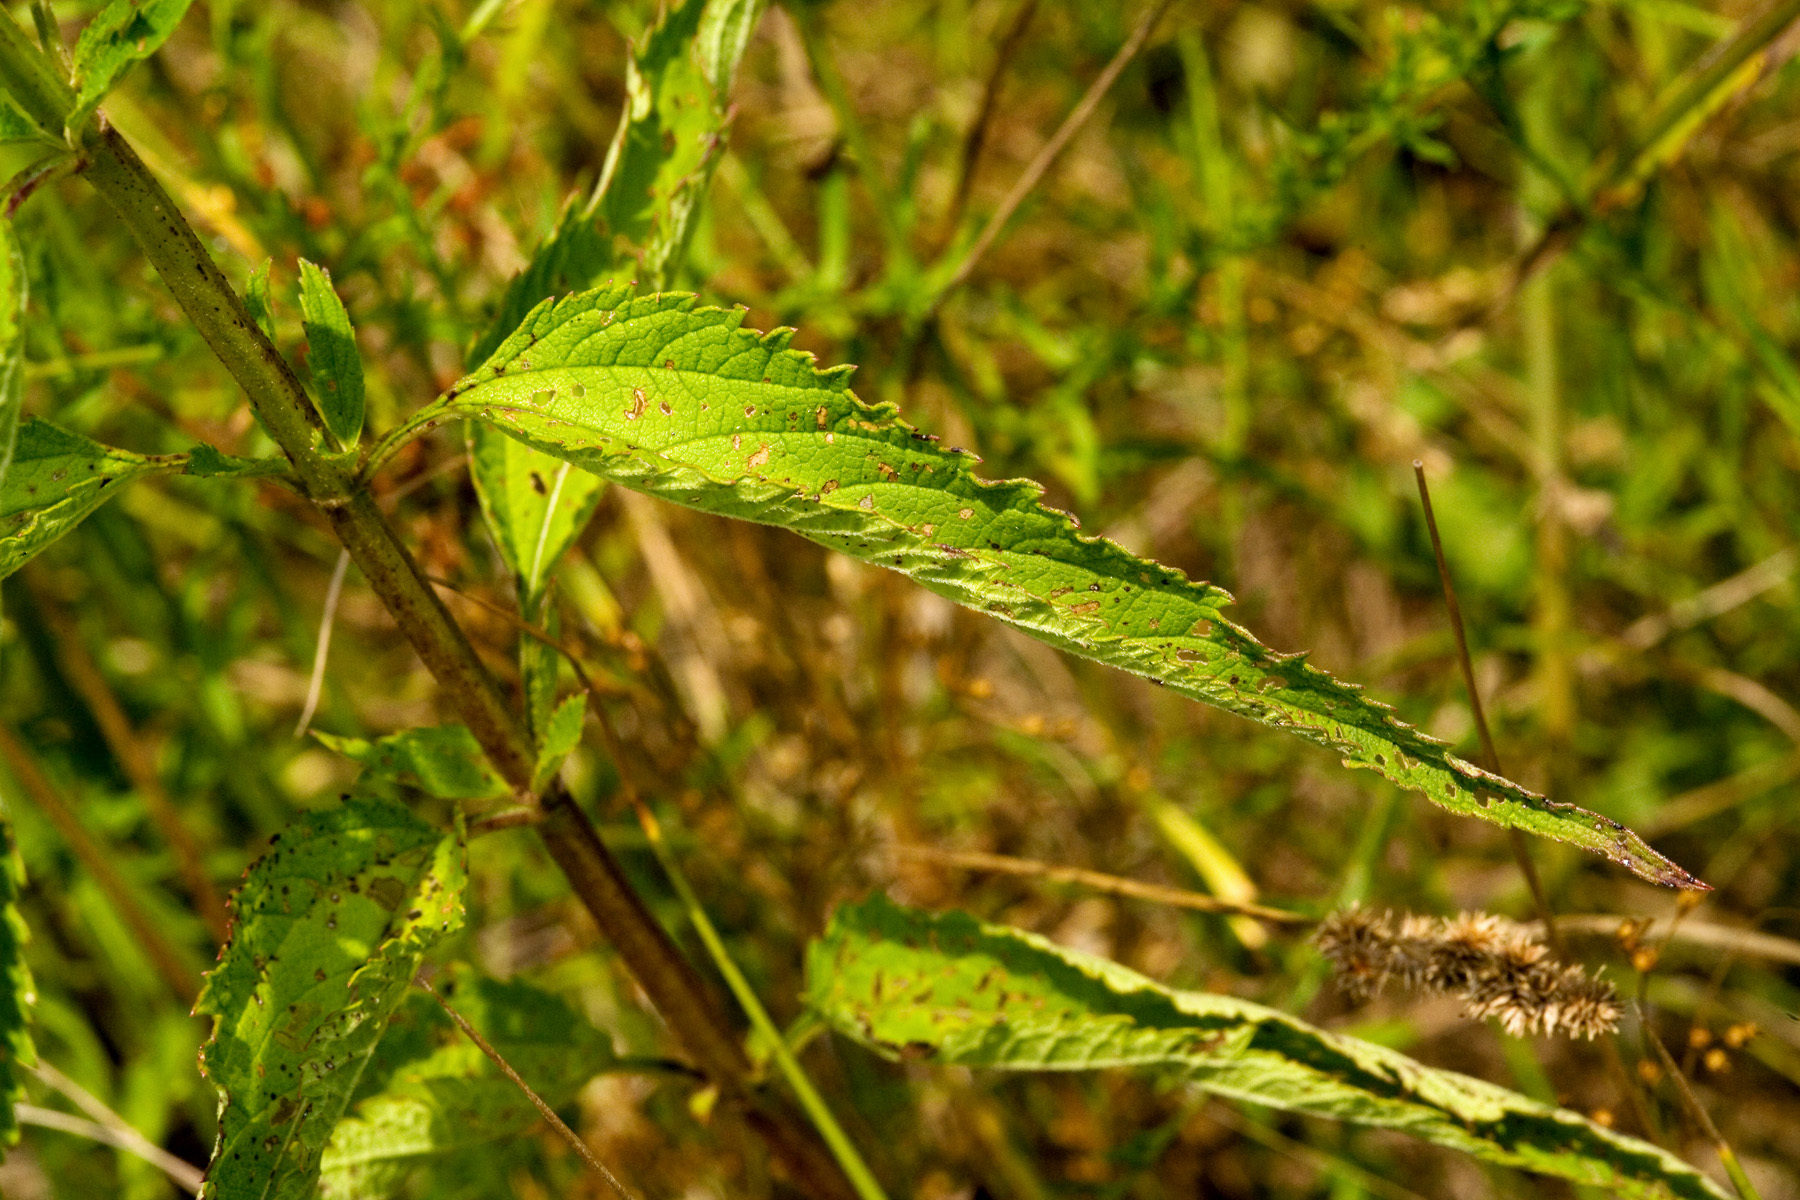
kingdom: Plantae
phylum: Tracheophyta
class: Magnoliopsida
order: Lamiales
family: Verbenaceae
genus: Verbena
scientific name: Verbena hastata
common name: American blue vervain
